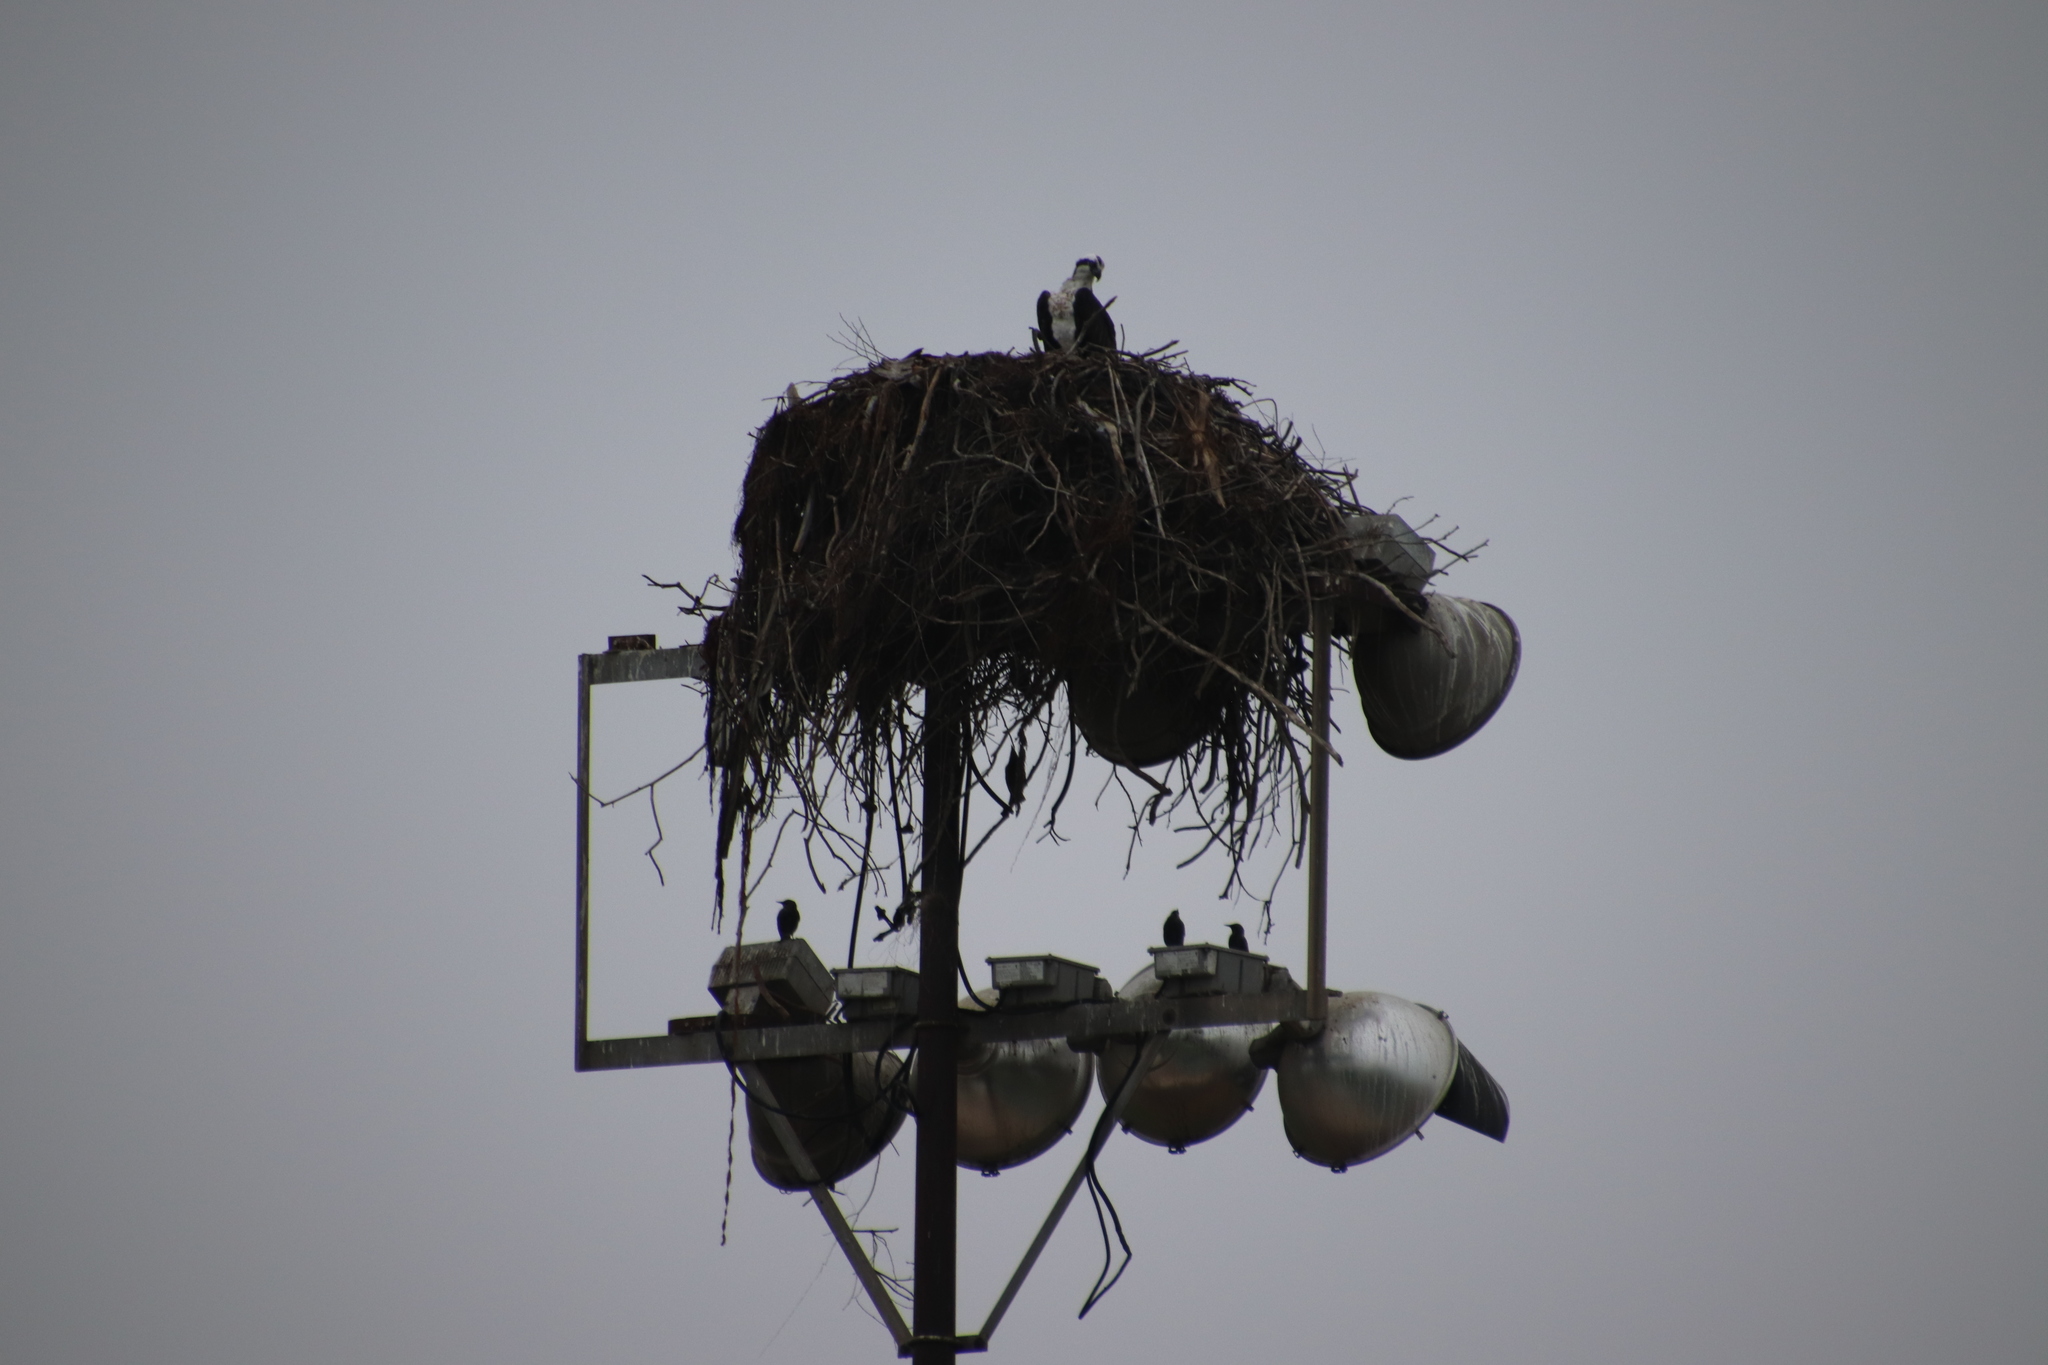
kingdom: Animalia
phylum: Chordata
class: Aves
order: Accipitriformes
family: Pandionidae
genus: Pandion
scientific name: Pandion haliaetus
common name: Osprey
